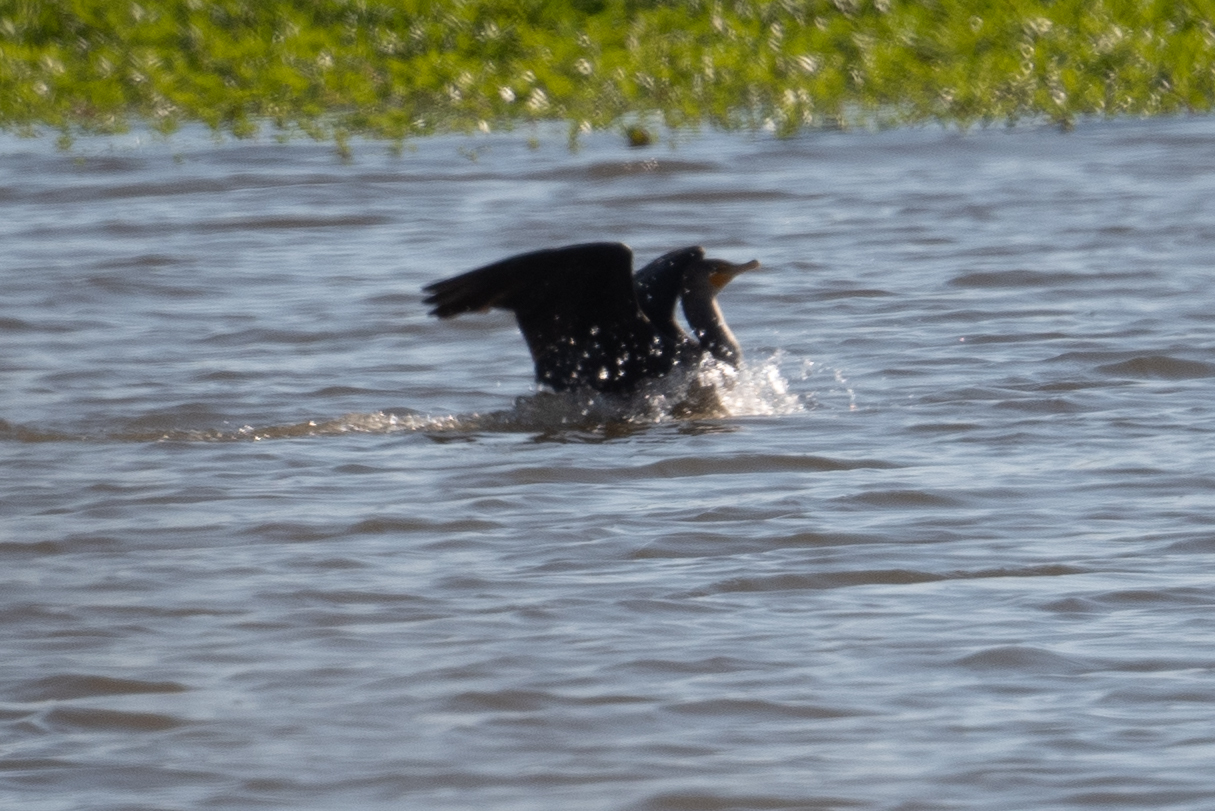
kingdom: Animalia
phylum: Chordata
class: Aves
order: Suliformes
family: Phalacrocoracidae
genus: Phalacrocorax
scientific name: Phalacrocorax auritus
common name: Double-crested cormorant
